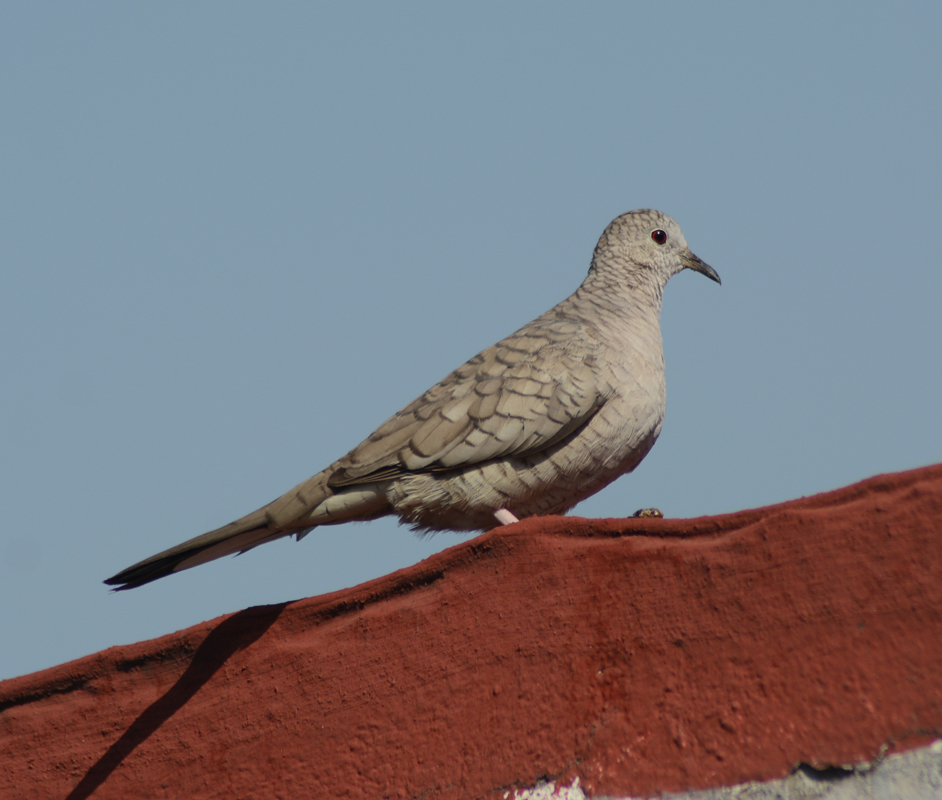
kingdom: Animalia
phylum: Chordata
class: Aves
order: Columbiformes
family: Columbidae
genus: Columbina
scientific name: Columbina inca
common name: Inca dove
